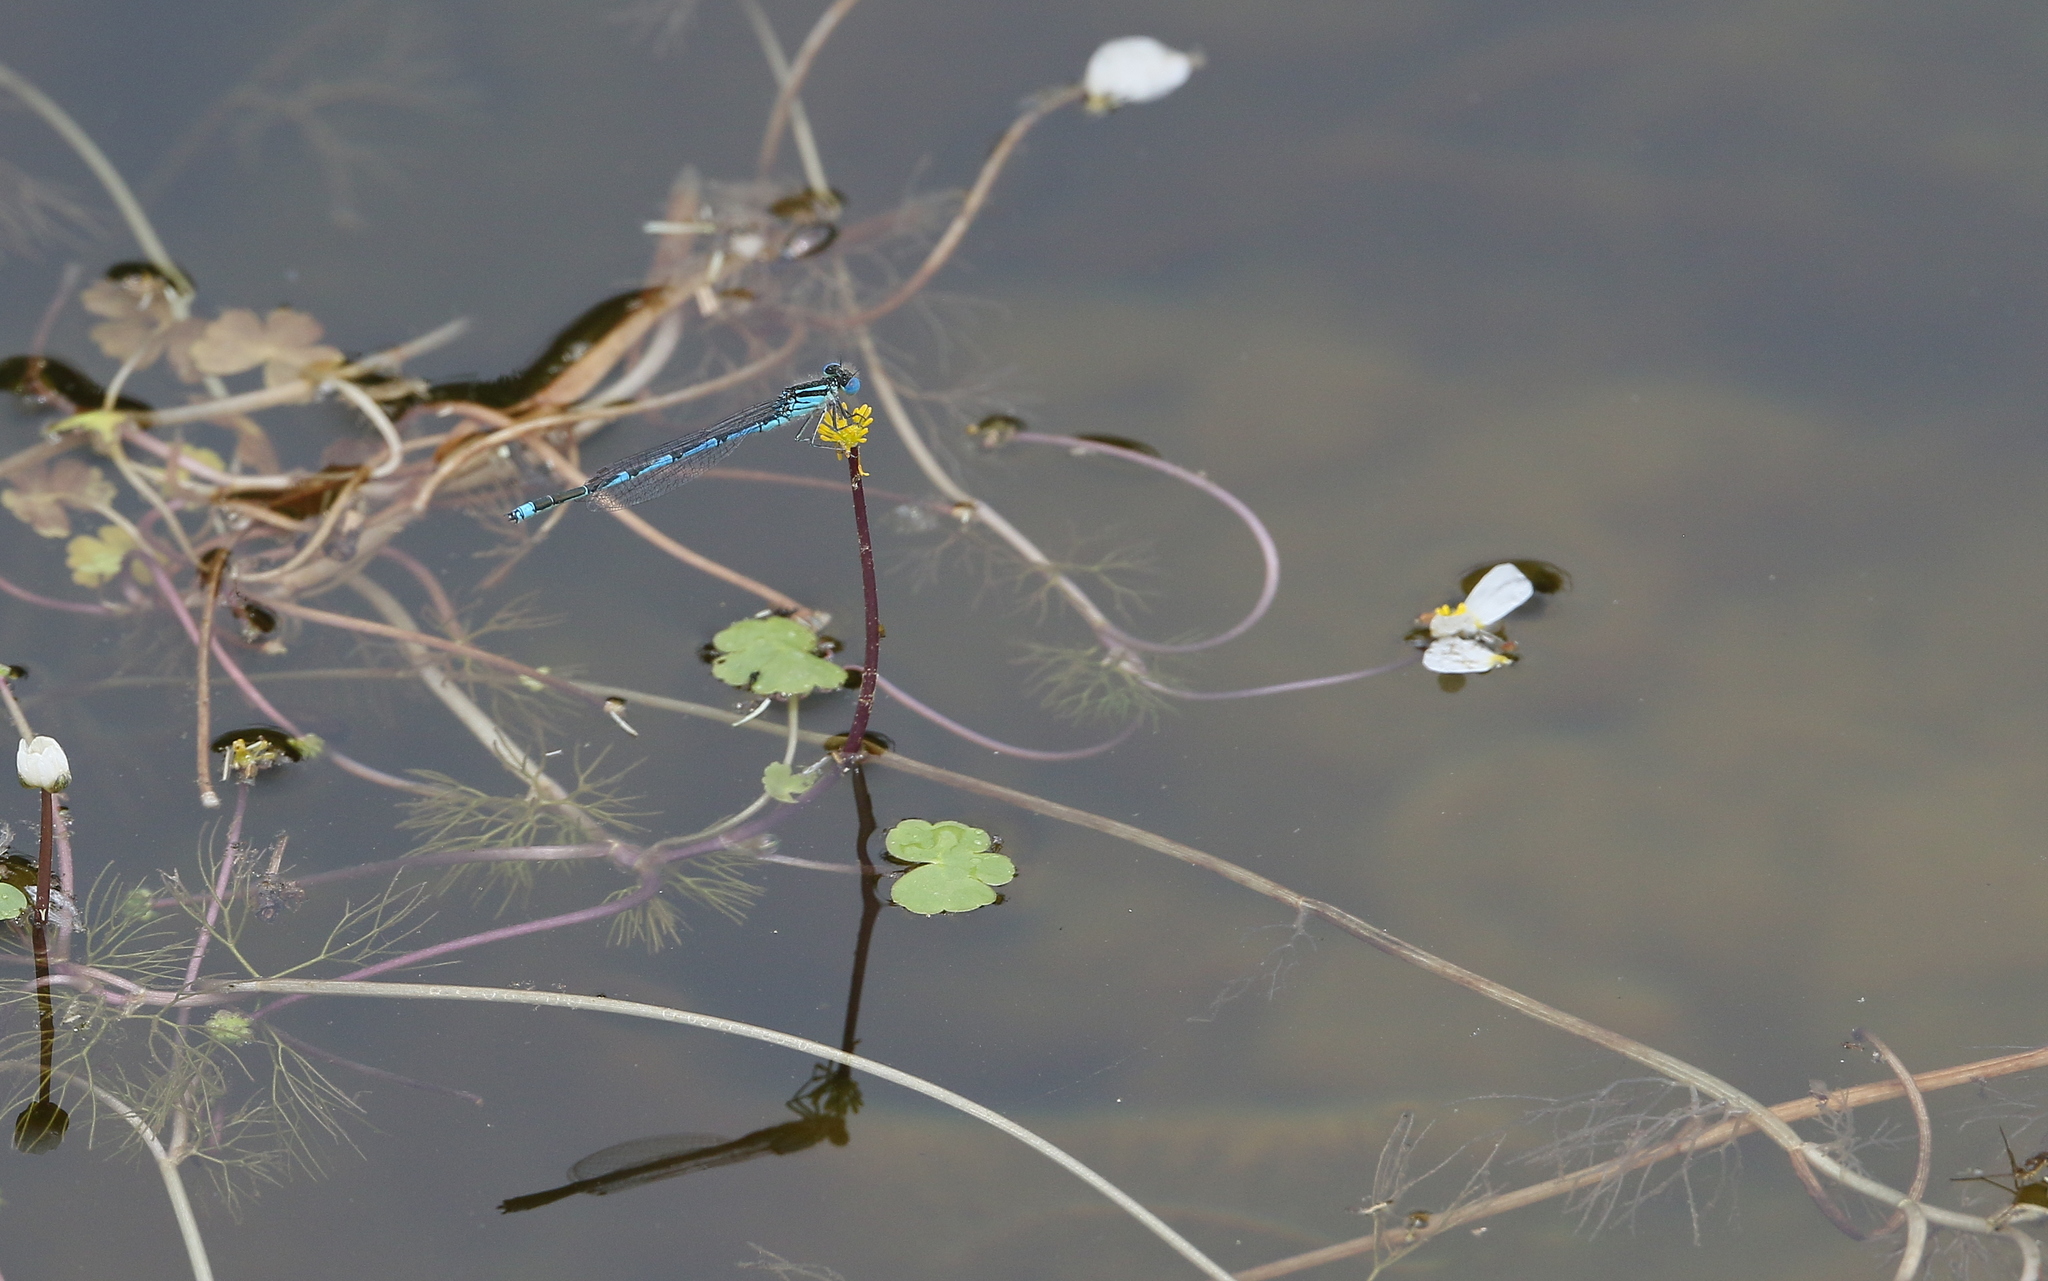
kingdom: Animalia
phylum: Arthropoda
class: Insecta
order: Odonata
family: Coenagrionidae
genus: Erythromma
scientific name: Erythromma lindenii
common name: Blue-eye
